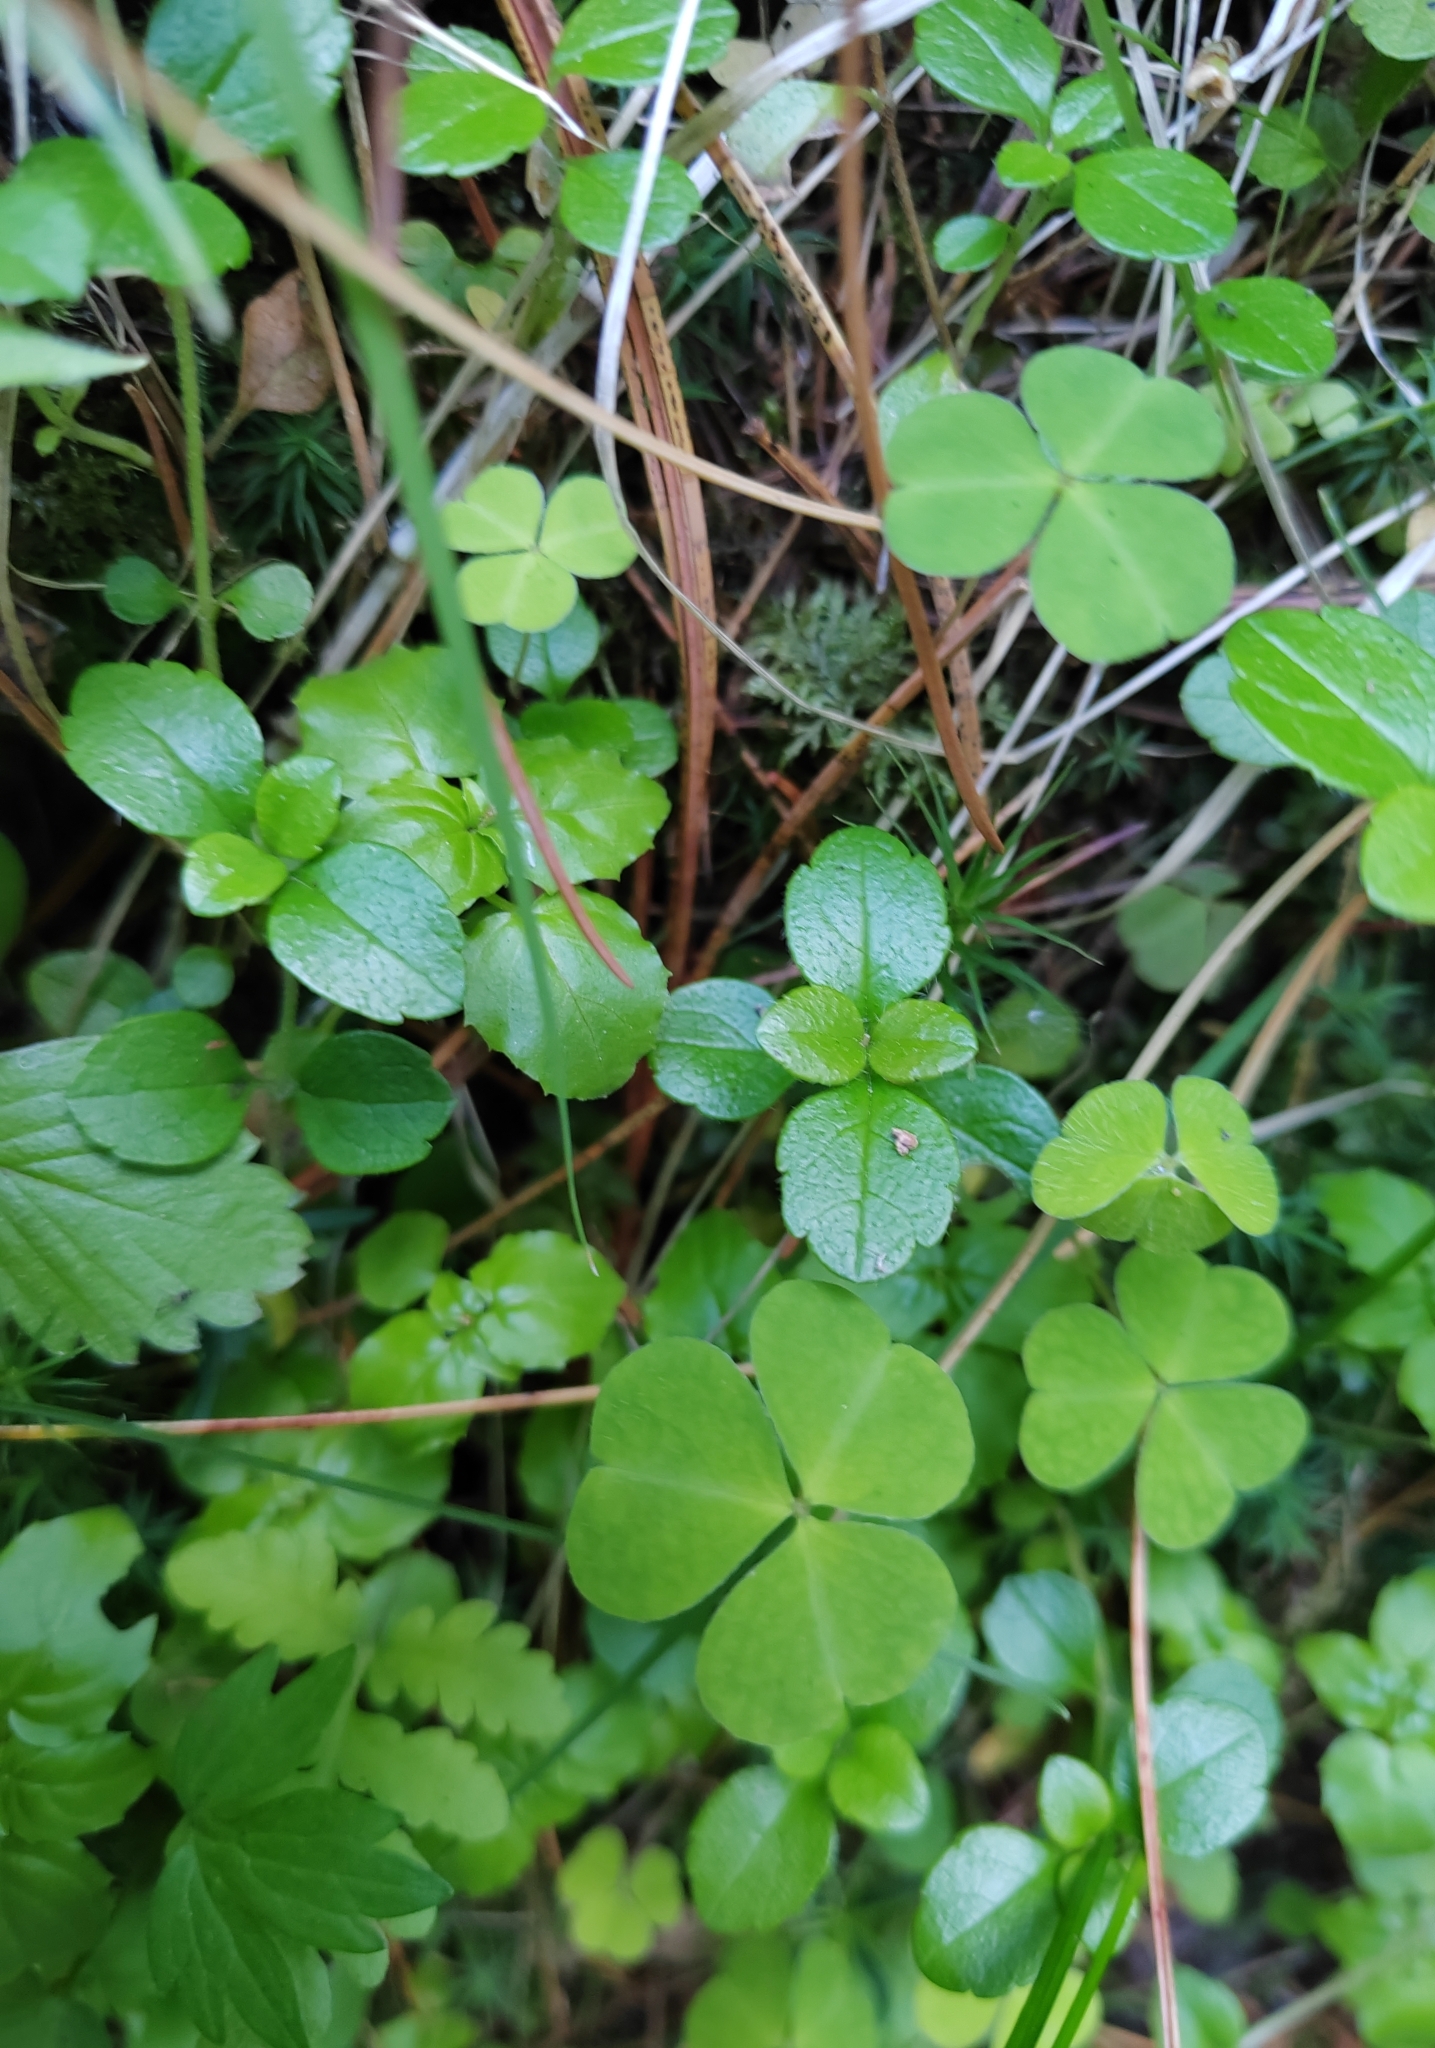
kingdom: Plantae
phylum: Tracheophyta
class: Magnoliopsida
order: Dipsacales
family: Caprifoliaceae
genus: Linnaea
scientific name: Linnaea borealis
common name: Twinflower
